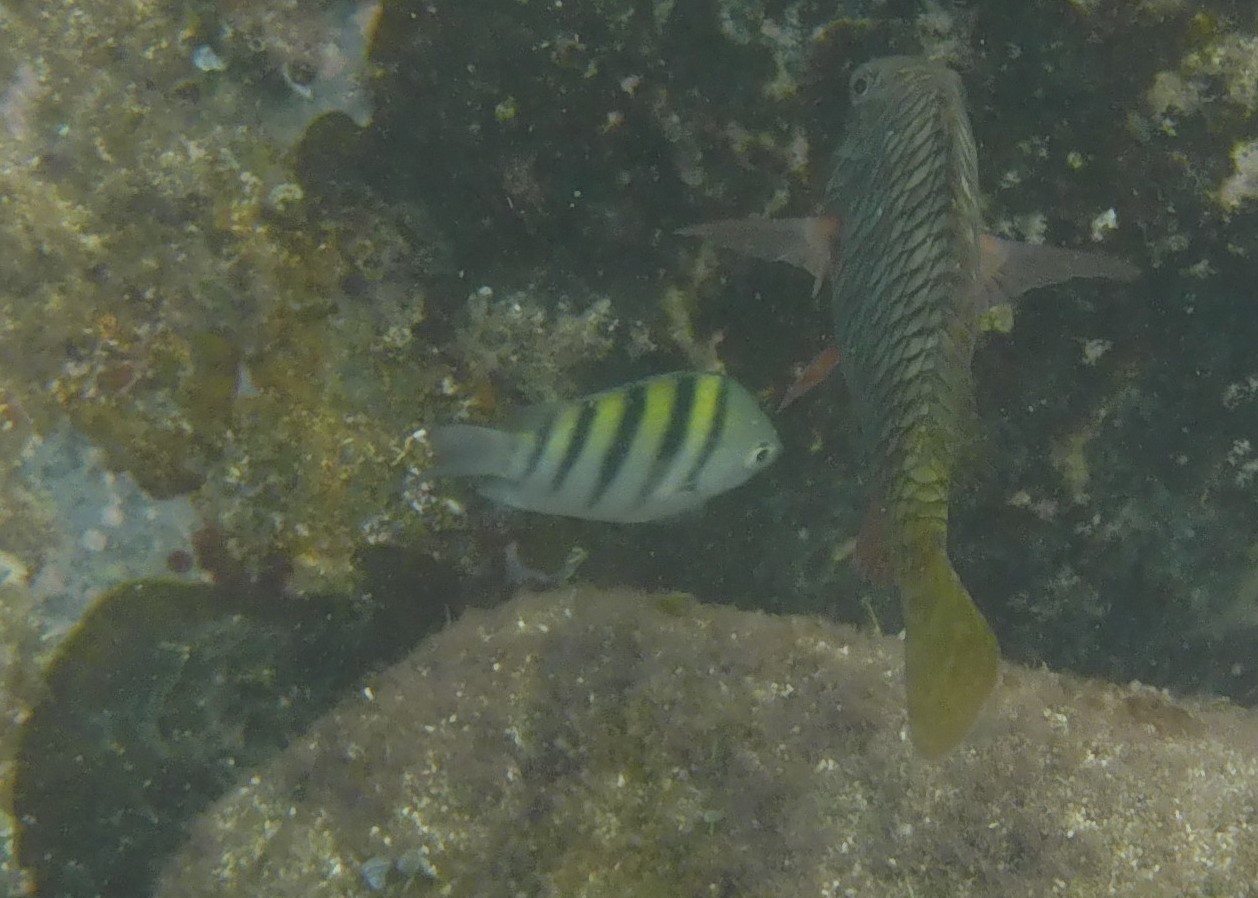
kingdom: Animalia
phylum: Chordata
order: Perciformes
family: Pomacentridae
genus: Abudefduf
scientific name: Abudefduf saxatilis
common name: Sergeant major
